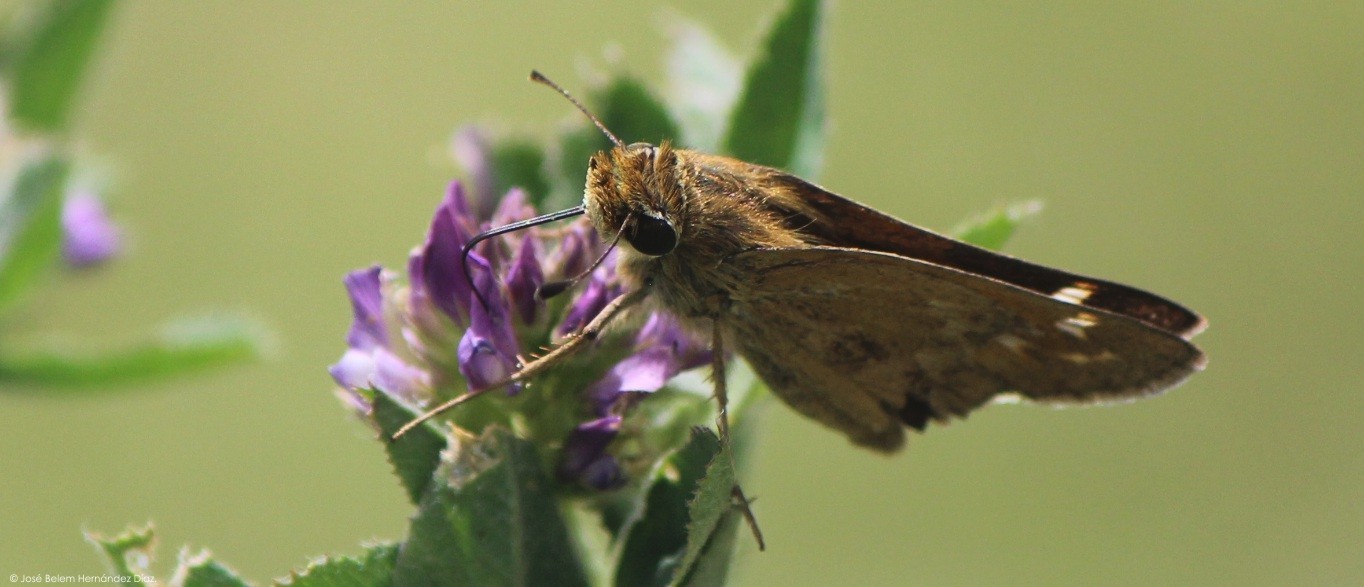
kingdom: Animalia
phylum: Arthropoda
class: Insecta
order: Lepidoptera
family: Hesperiidae
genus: Atalopedes
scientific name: Atalopedes
